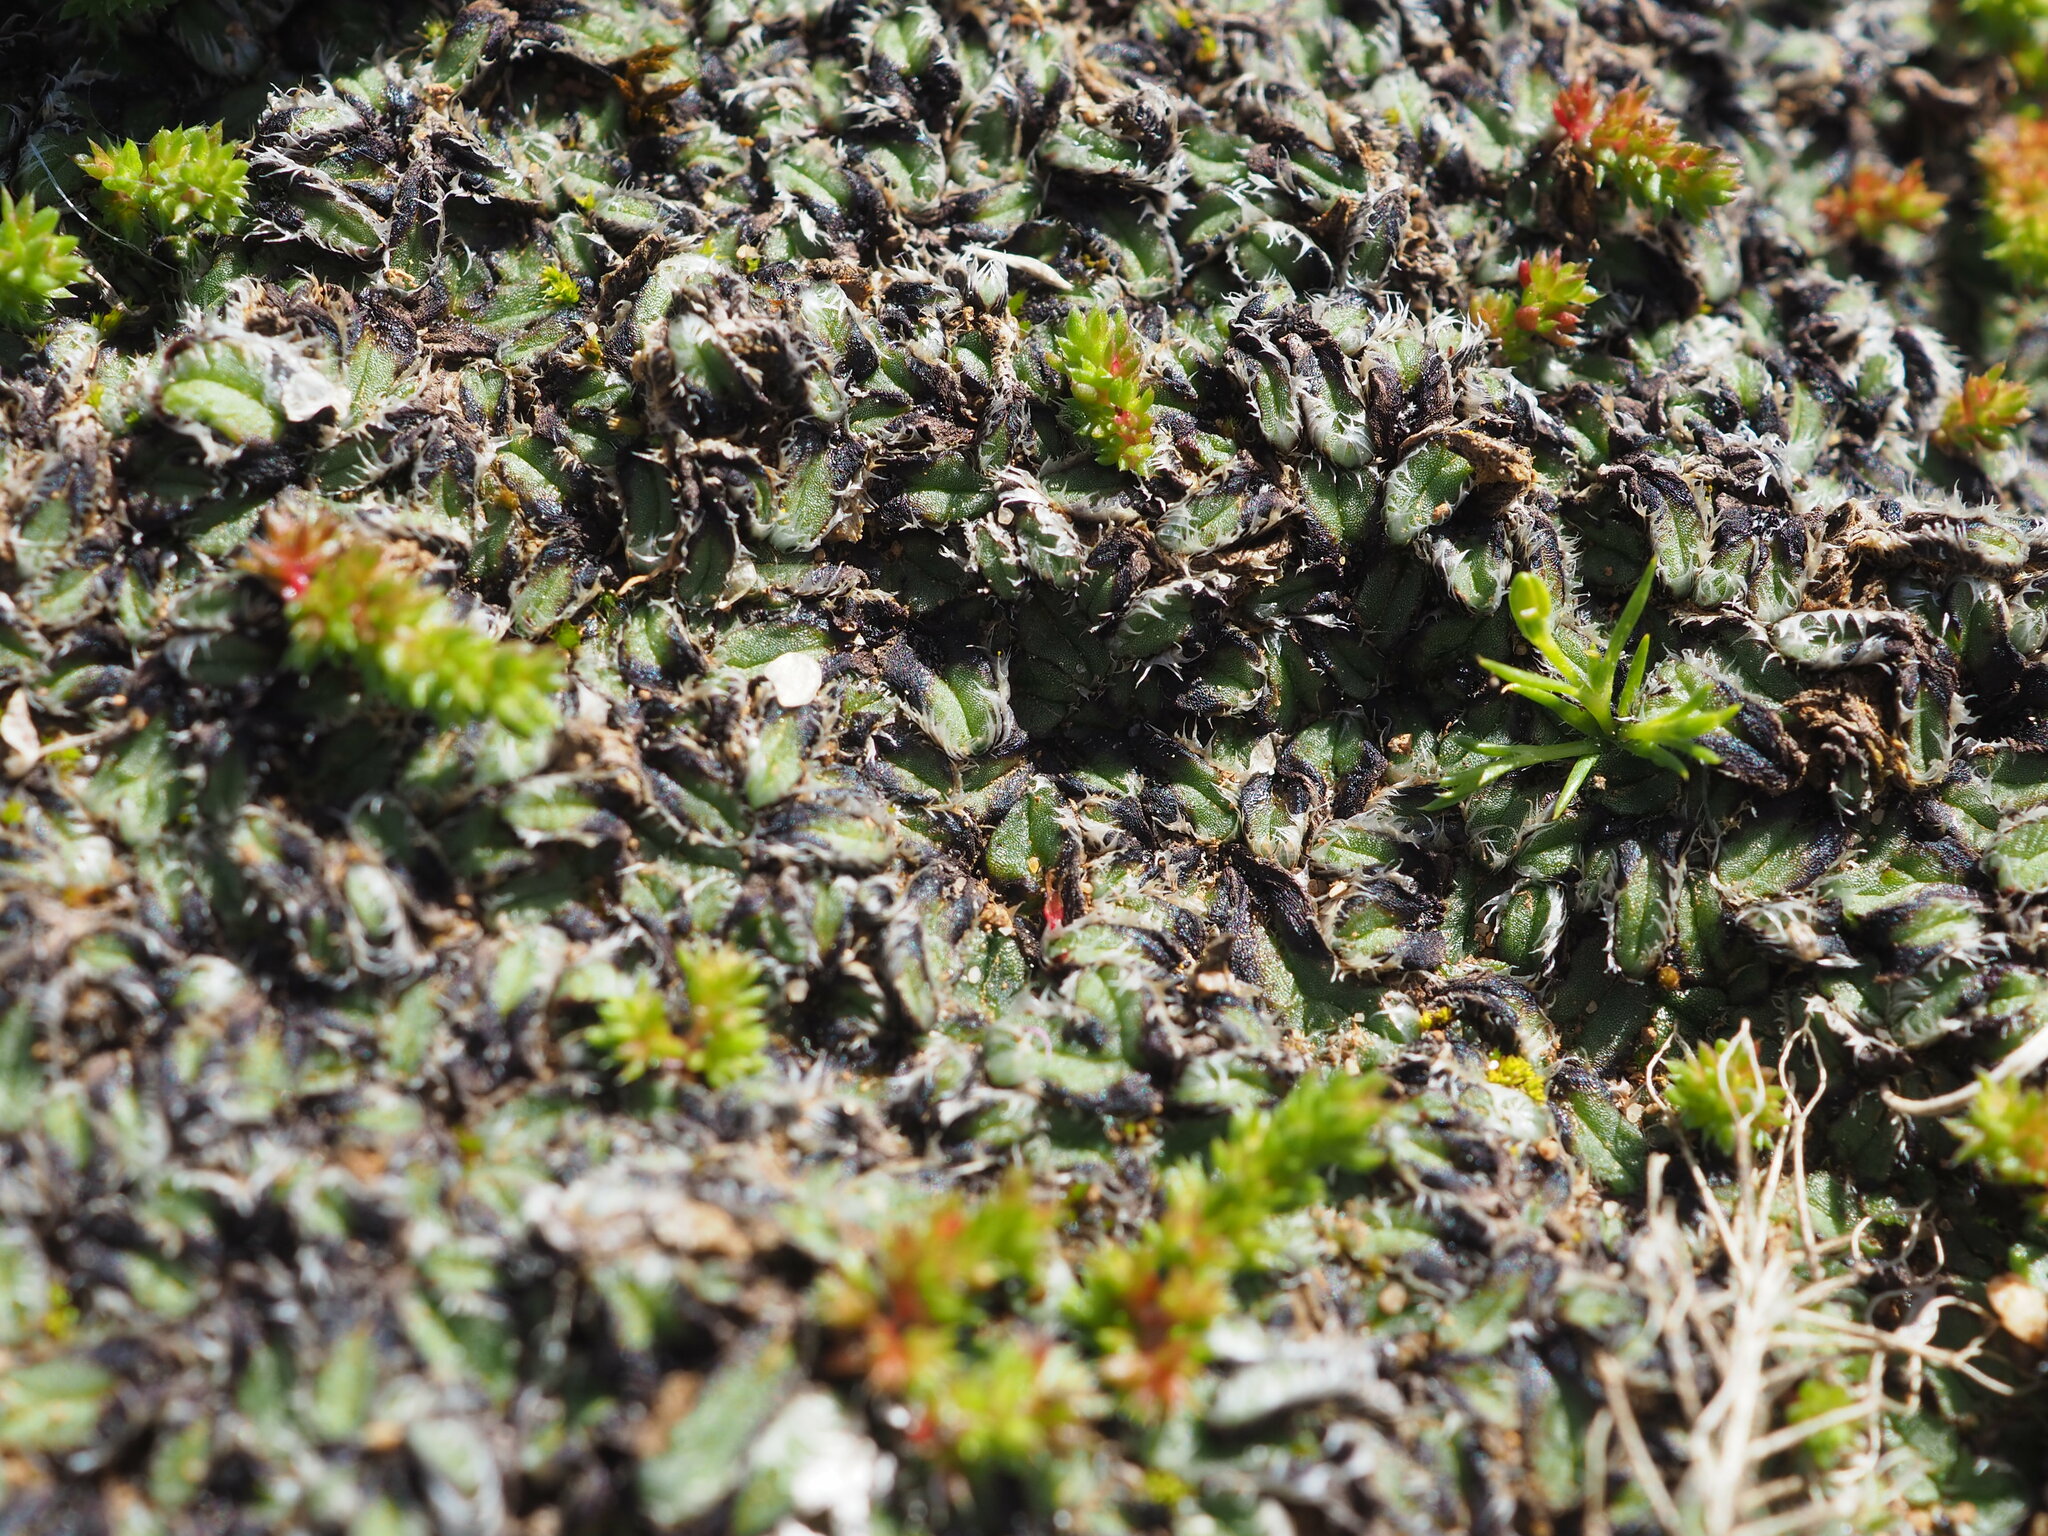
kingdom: Plantae
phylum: Marchantiophyta
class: Marchantiopsida
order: Marchantiales
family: Ricciaceae
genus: Oxymitra
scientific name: Oxymitra incrassata
